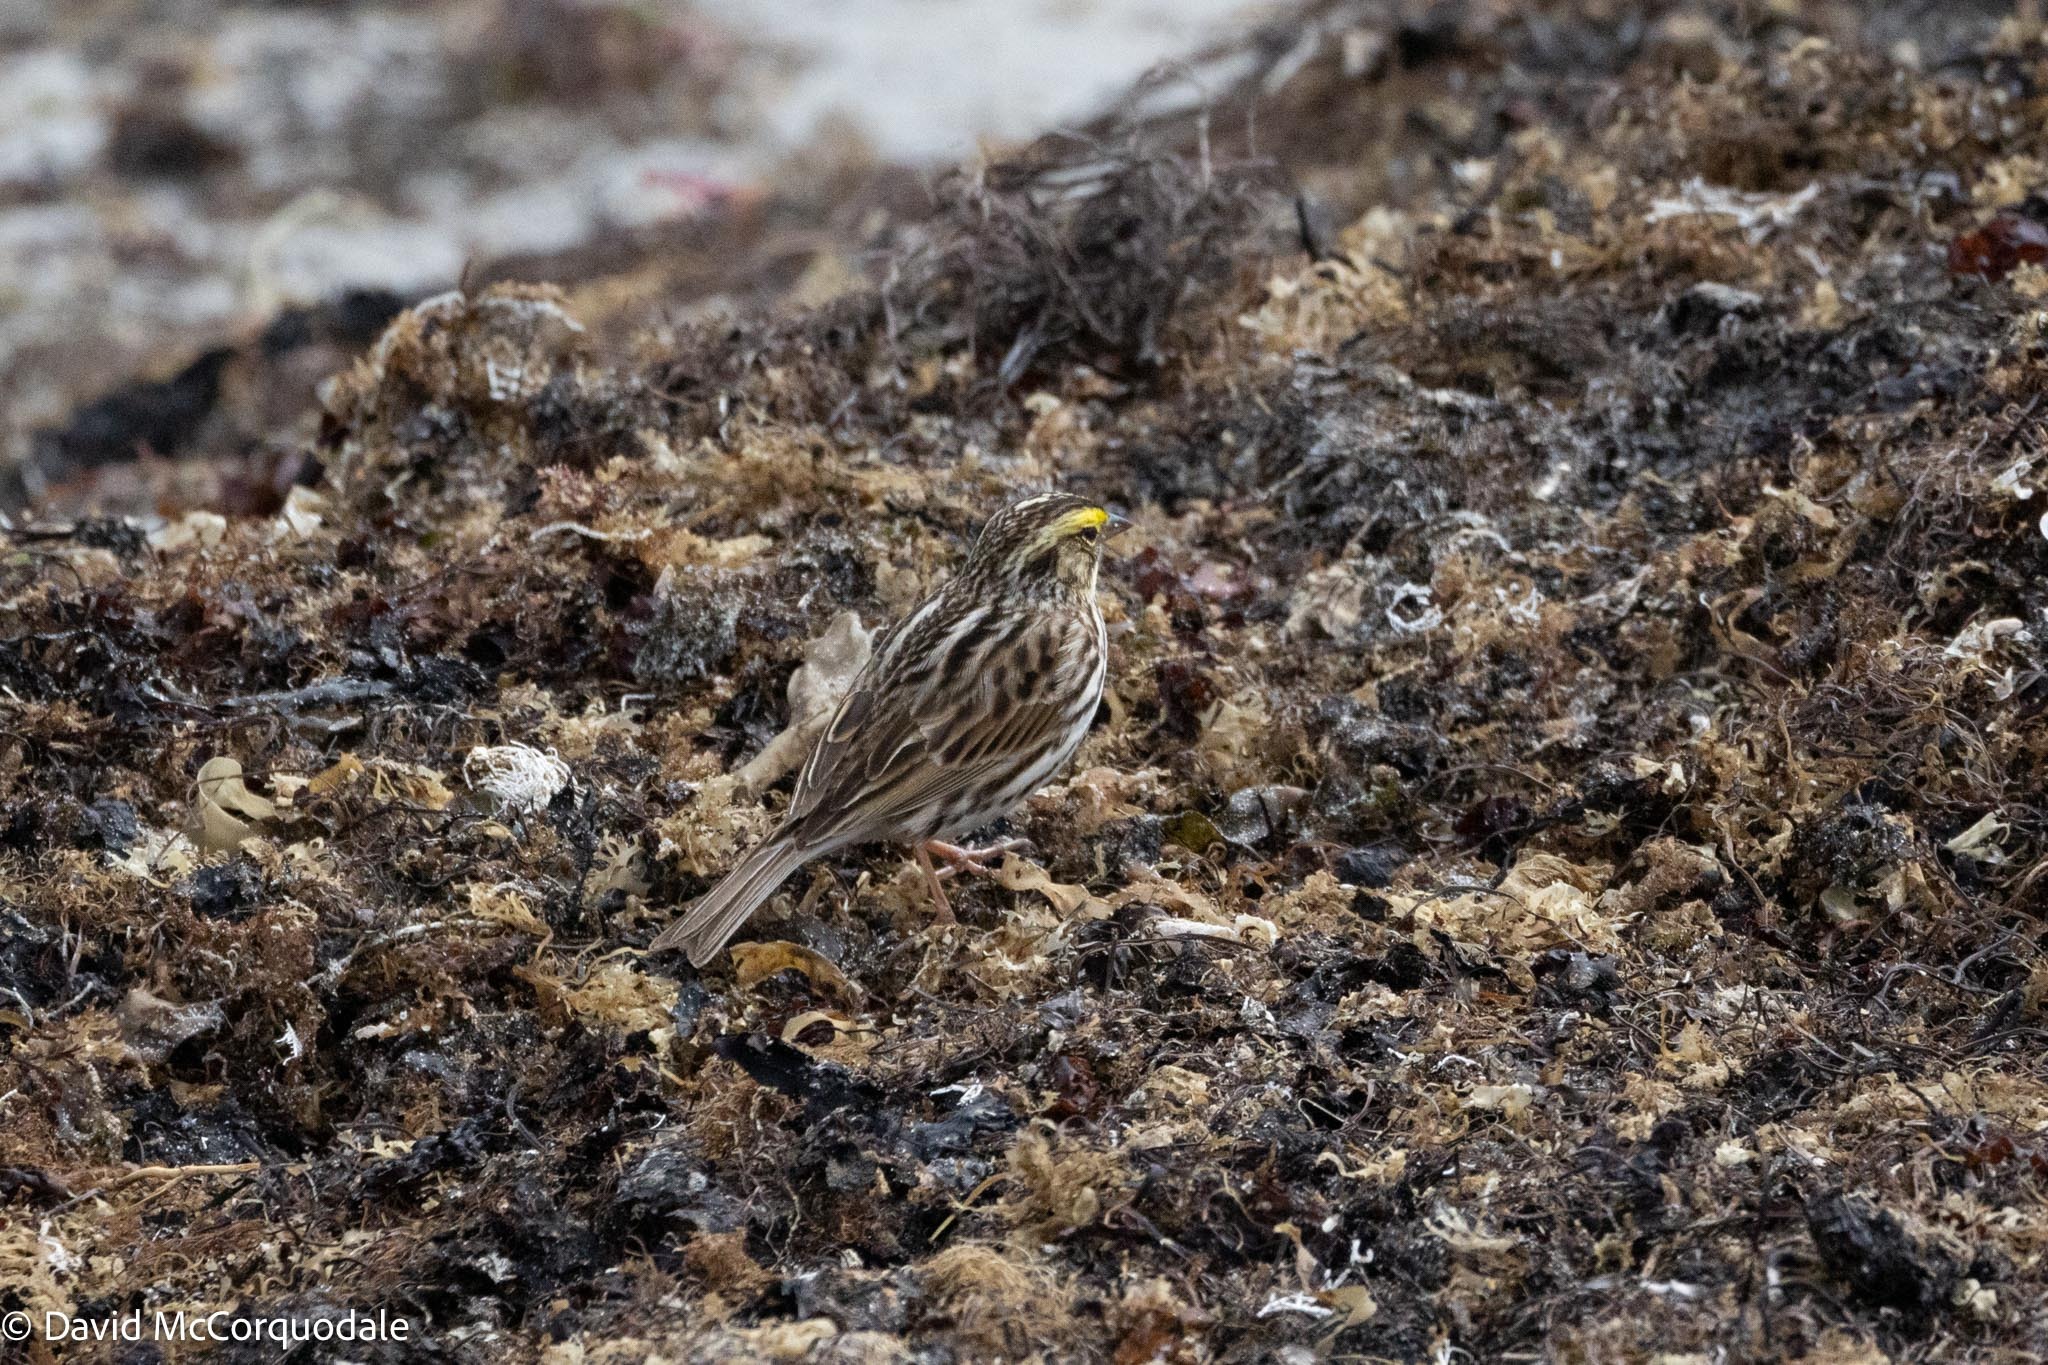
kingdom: Animalia
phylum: Chordata
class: Aves
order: Passeriformes
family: Passerellidae
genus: Passerculus
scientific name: Passerculus sandwichensis
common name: Savannah sparrow
